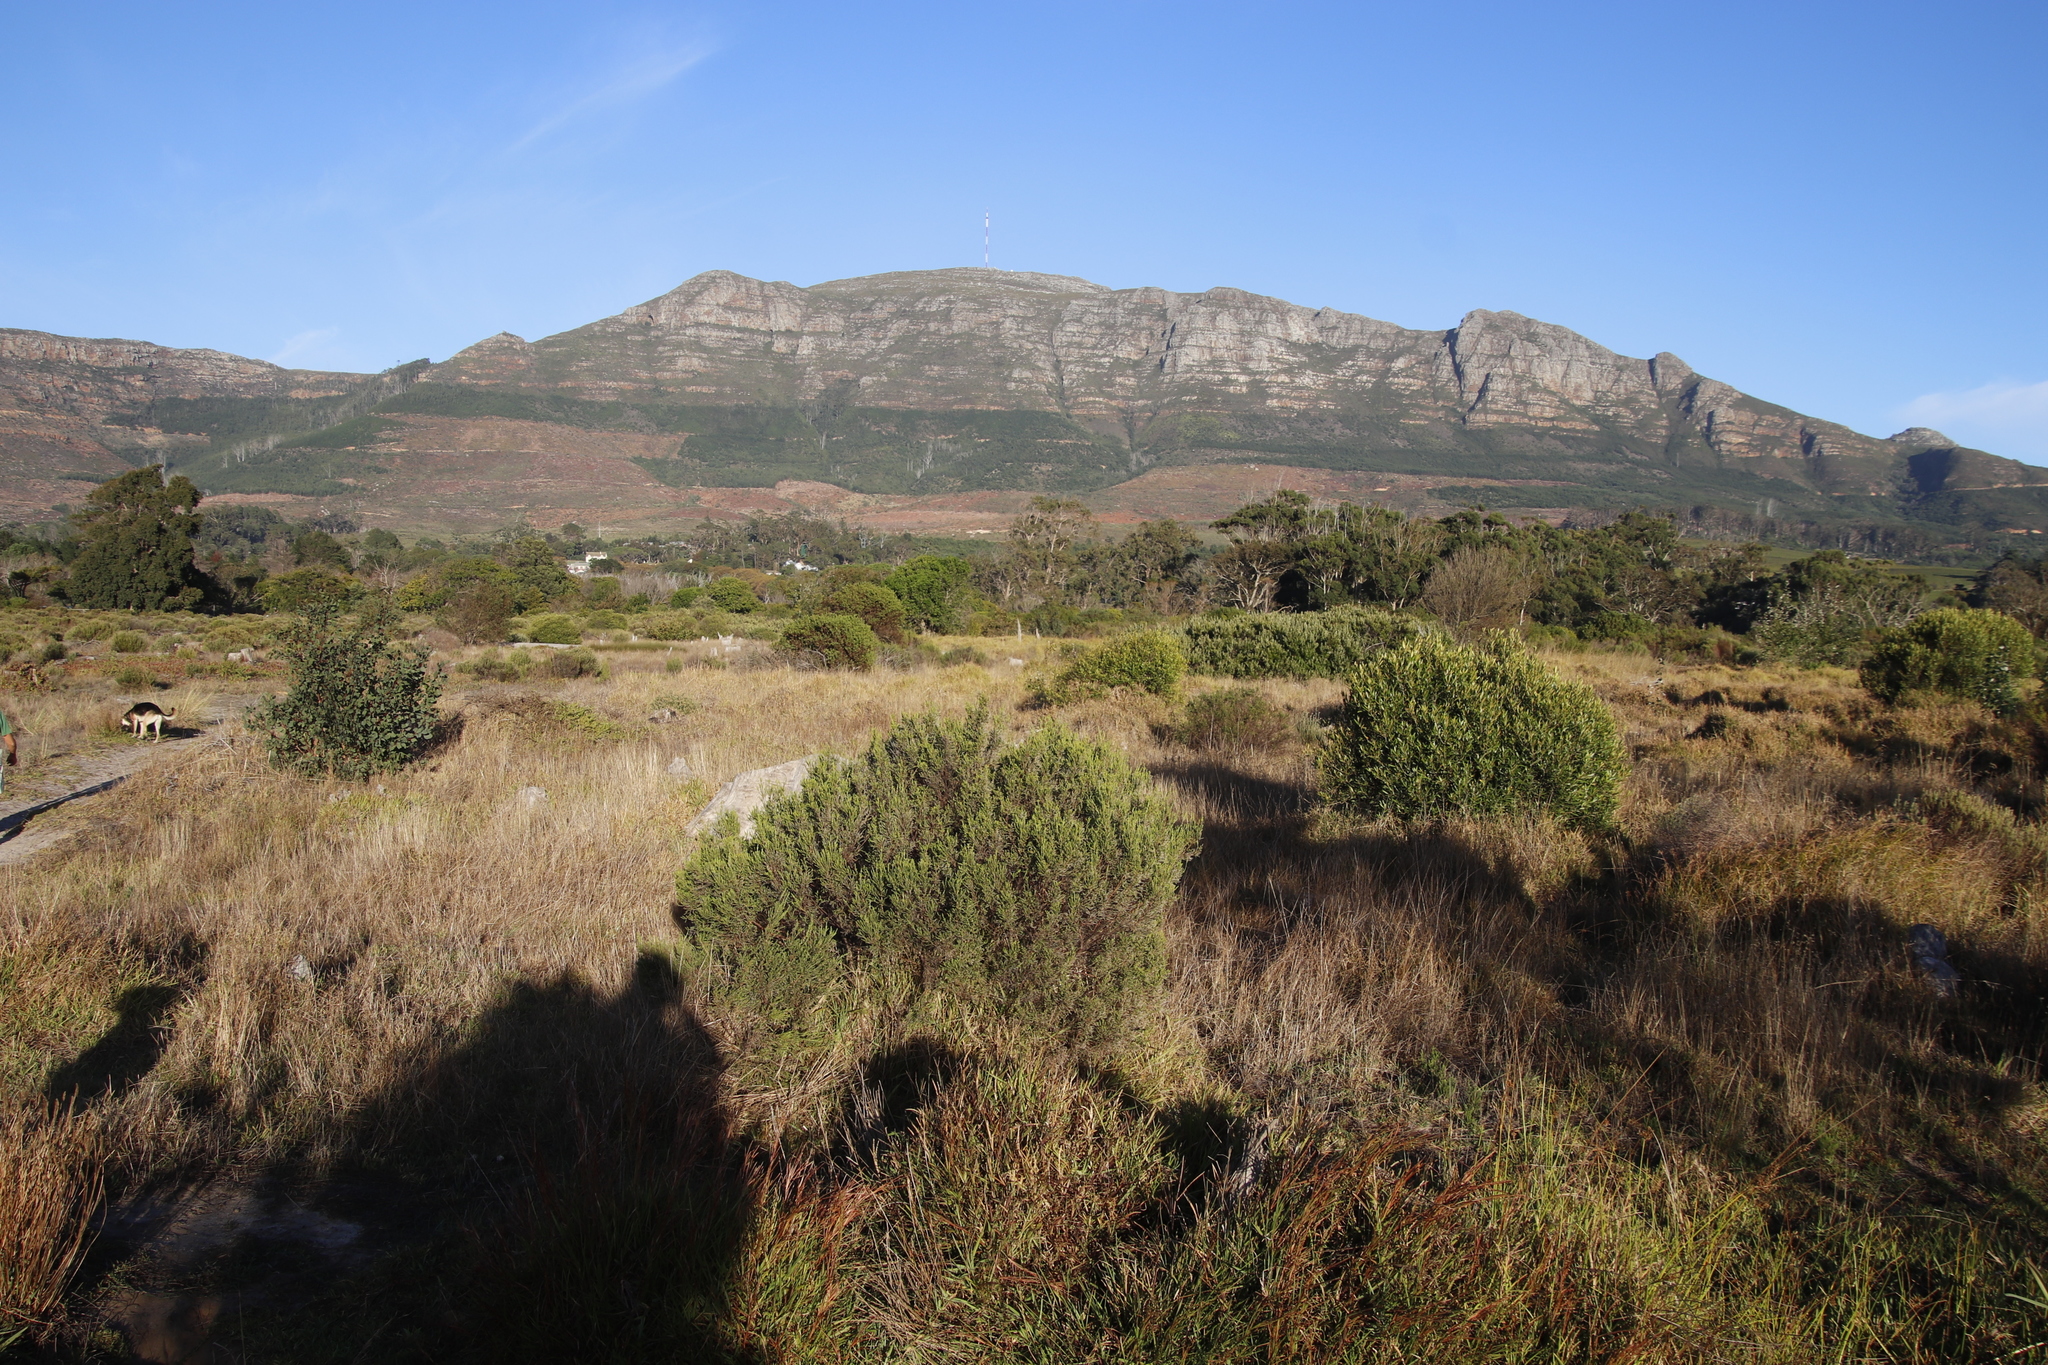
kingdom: Plantae
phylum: Tracheophyta
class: Magnoliopsida
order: Malvales
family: Thymelaeaceae
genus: Passerina
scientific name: Passerina corymbosa
